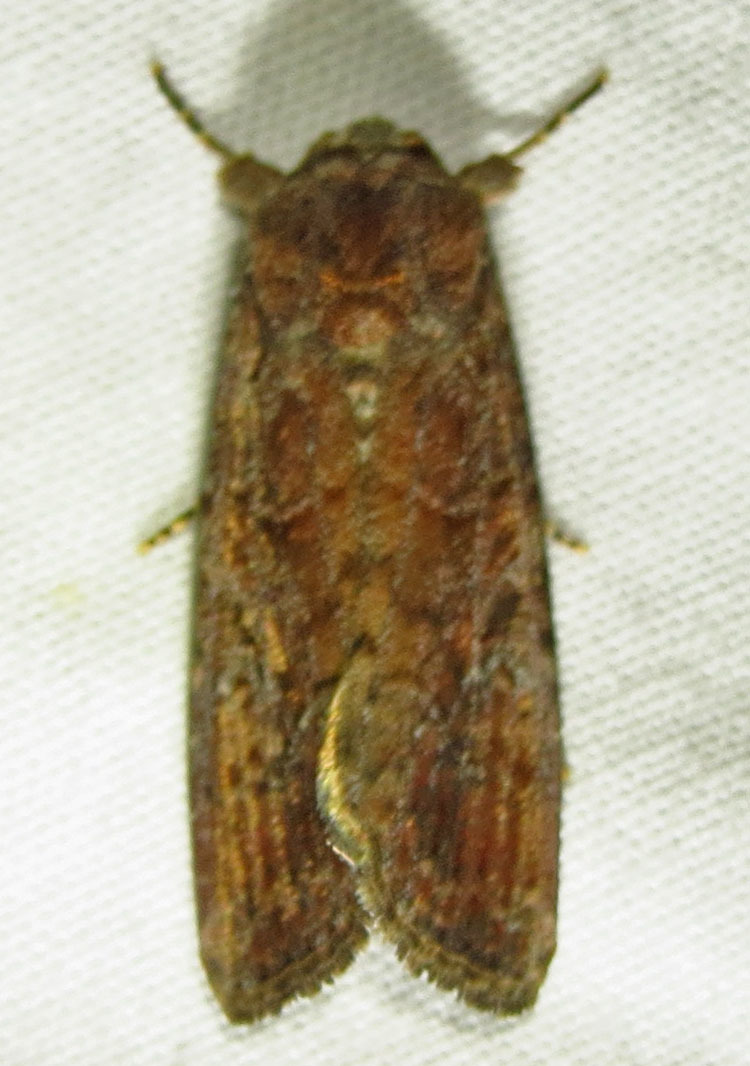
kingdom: Animalia
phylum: Arthropoda
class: Insecta
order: Lepidoptera
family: Noctuidae
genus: Spodoptera
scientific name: Spodoptera frugiperda
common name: Fall armyworm
